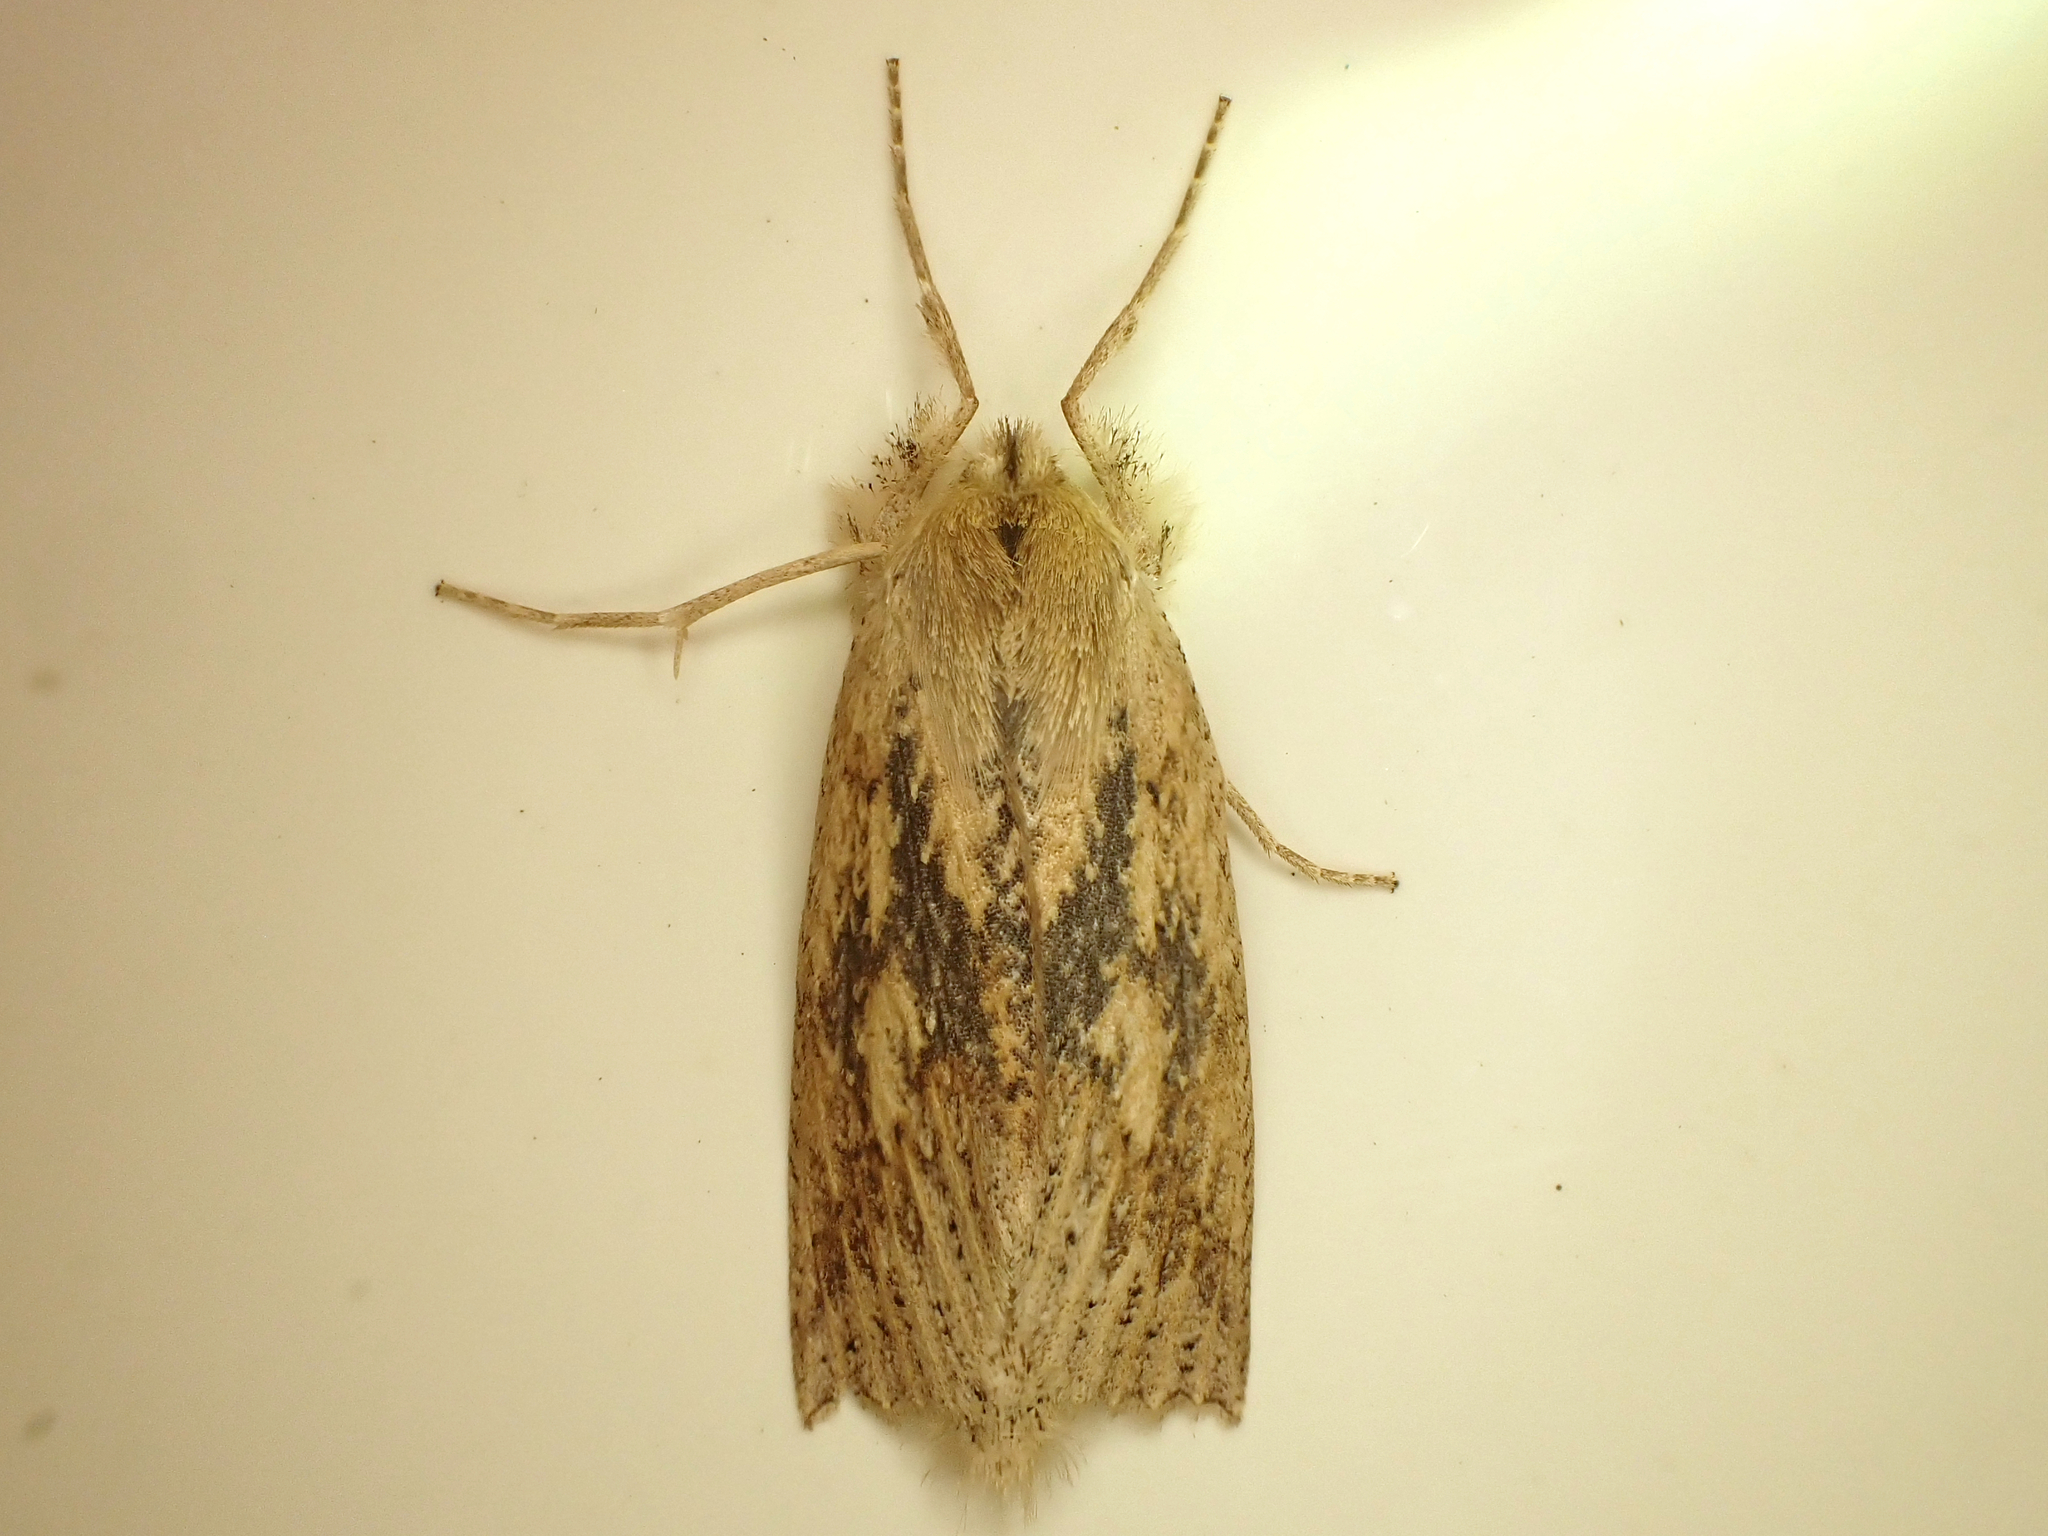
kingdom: Animalia
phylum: Arthropoda
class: Insecta
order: Lepidoptera
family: Geometridae
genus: Declana
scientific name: Declana leptomera
